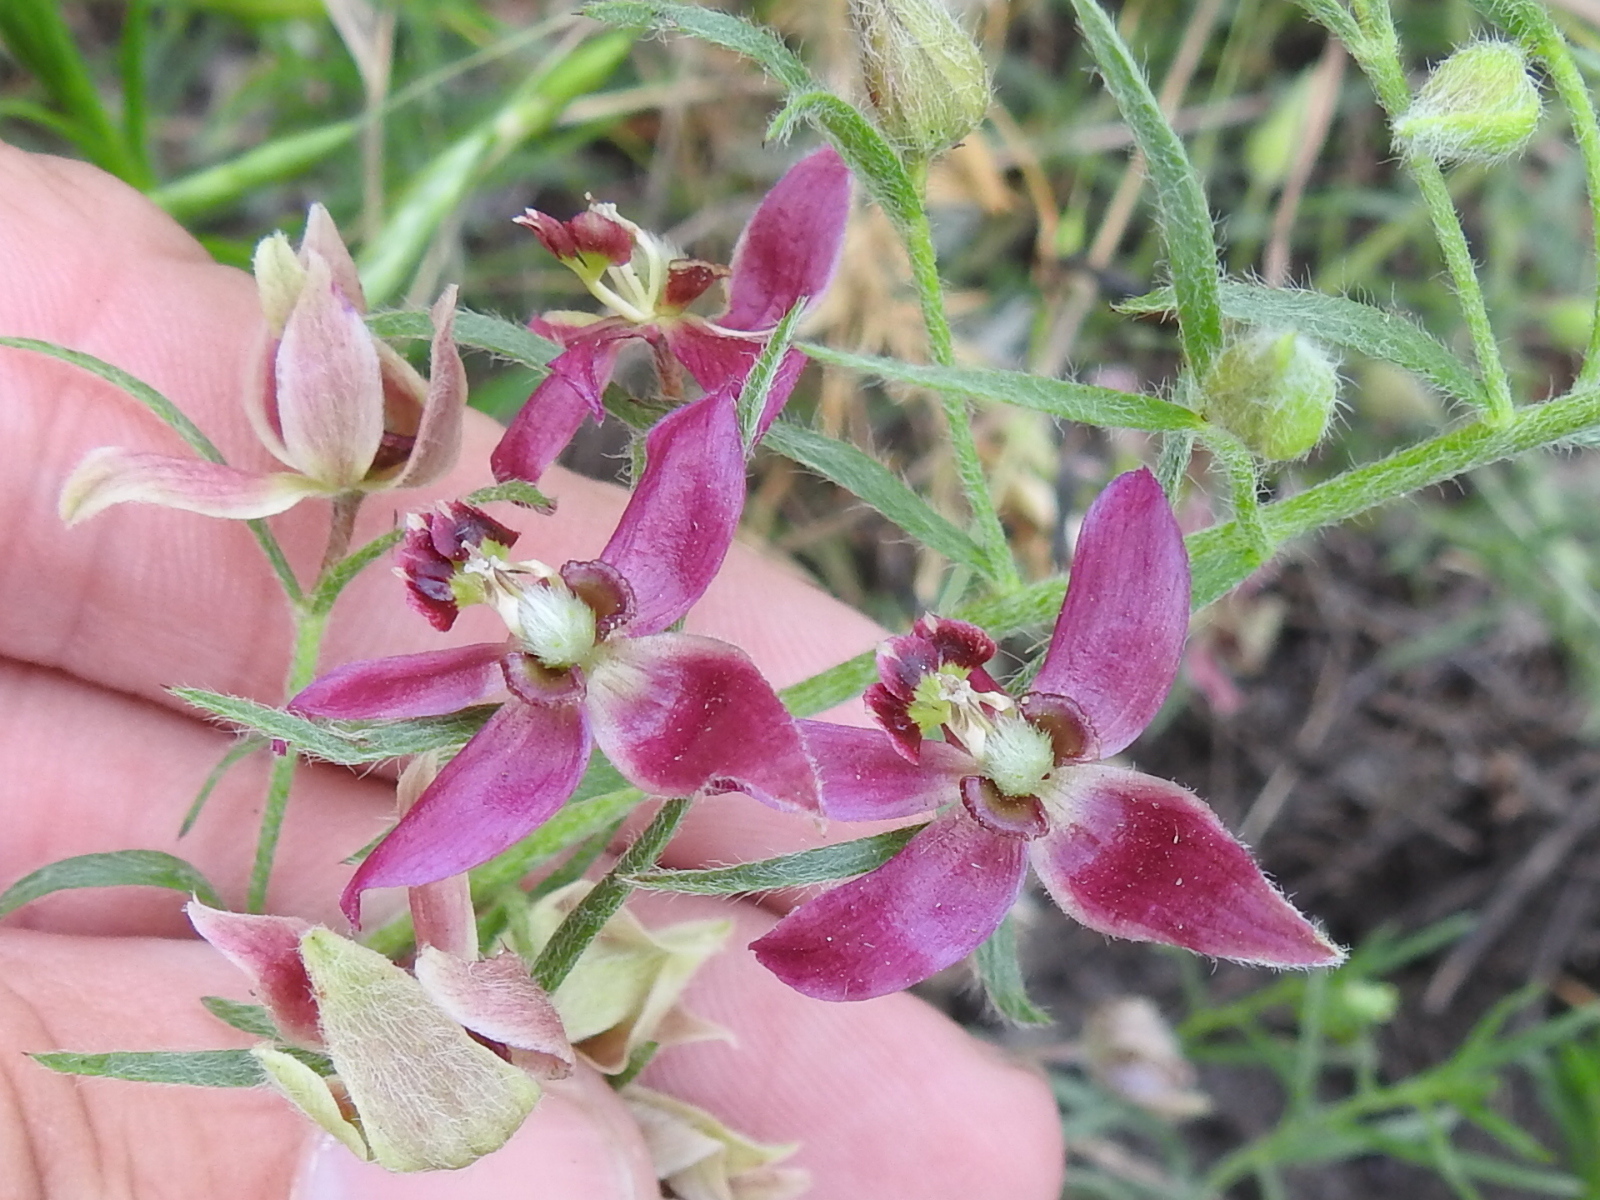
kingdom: Plantae
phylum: Tracheophyta
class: Magnoliopsida
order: Zygophyllales
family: Krameriaceae
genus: Krameria
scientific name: Krameria lanceolata
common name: Ratany
